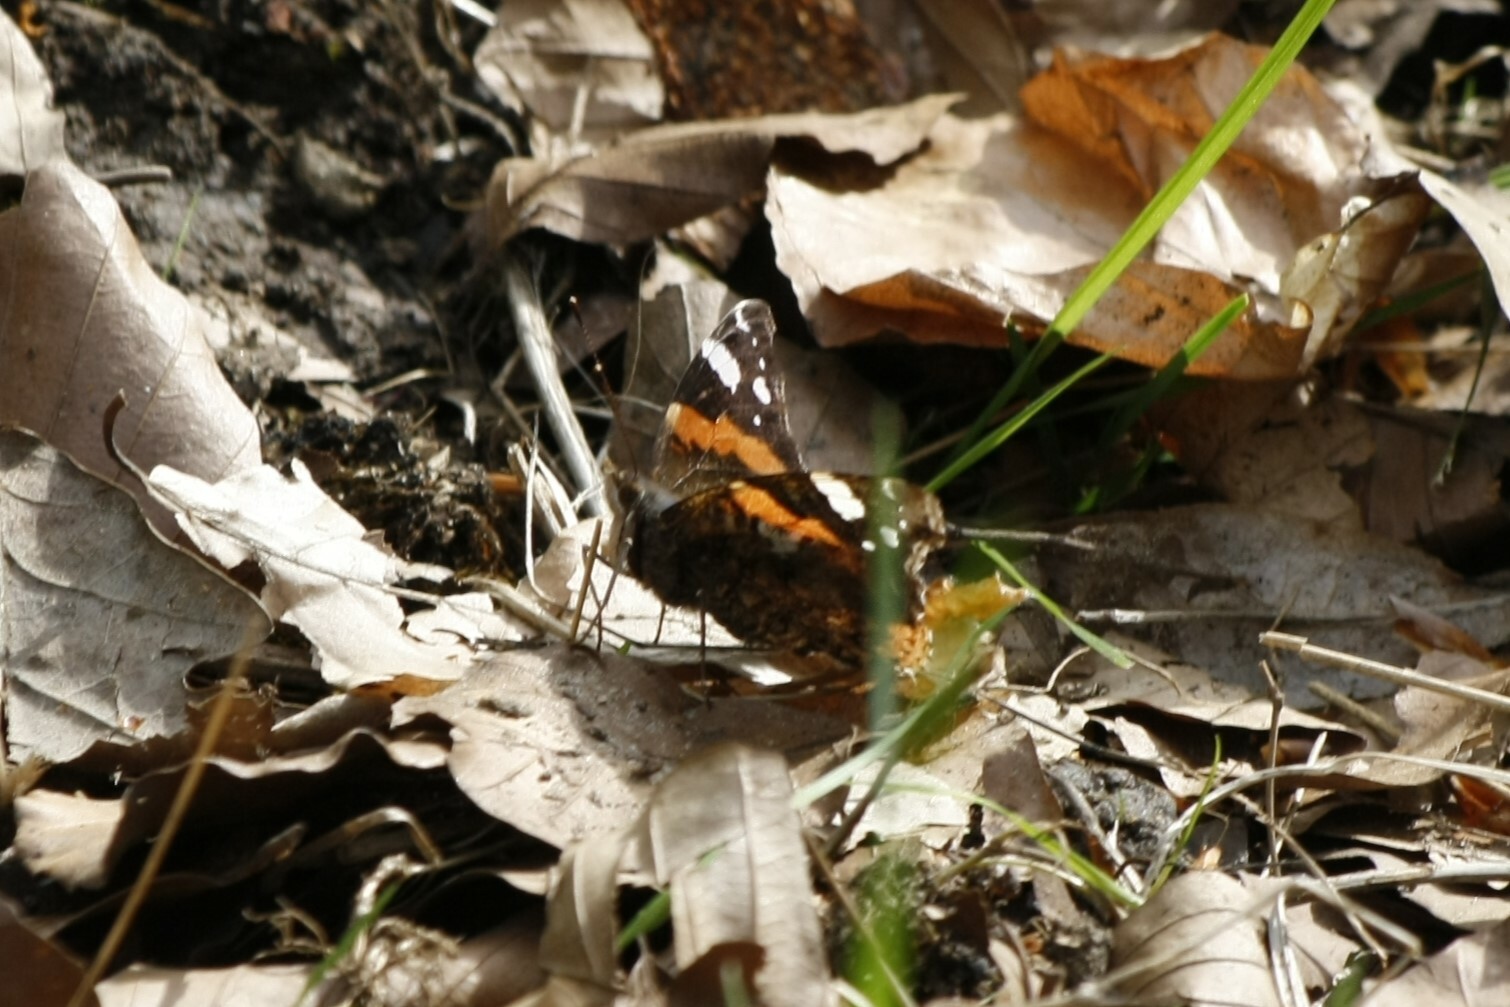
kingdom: Animalia
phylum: Arthropoda
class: Insecta
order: Lepidoptera
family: Nymphalidae
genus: Vanessa
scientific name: Vanessa atalanta
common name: Red admiral
